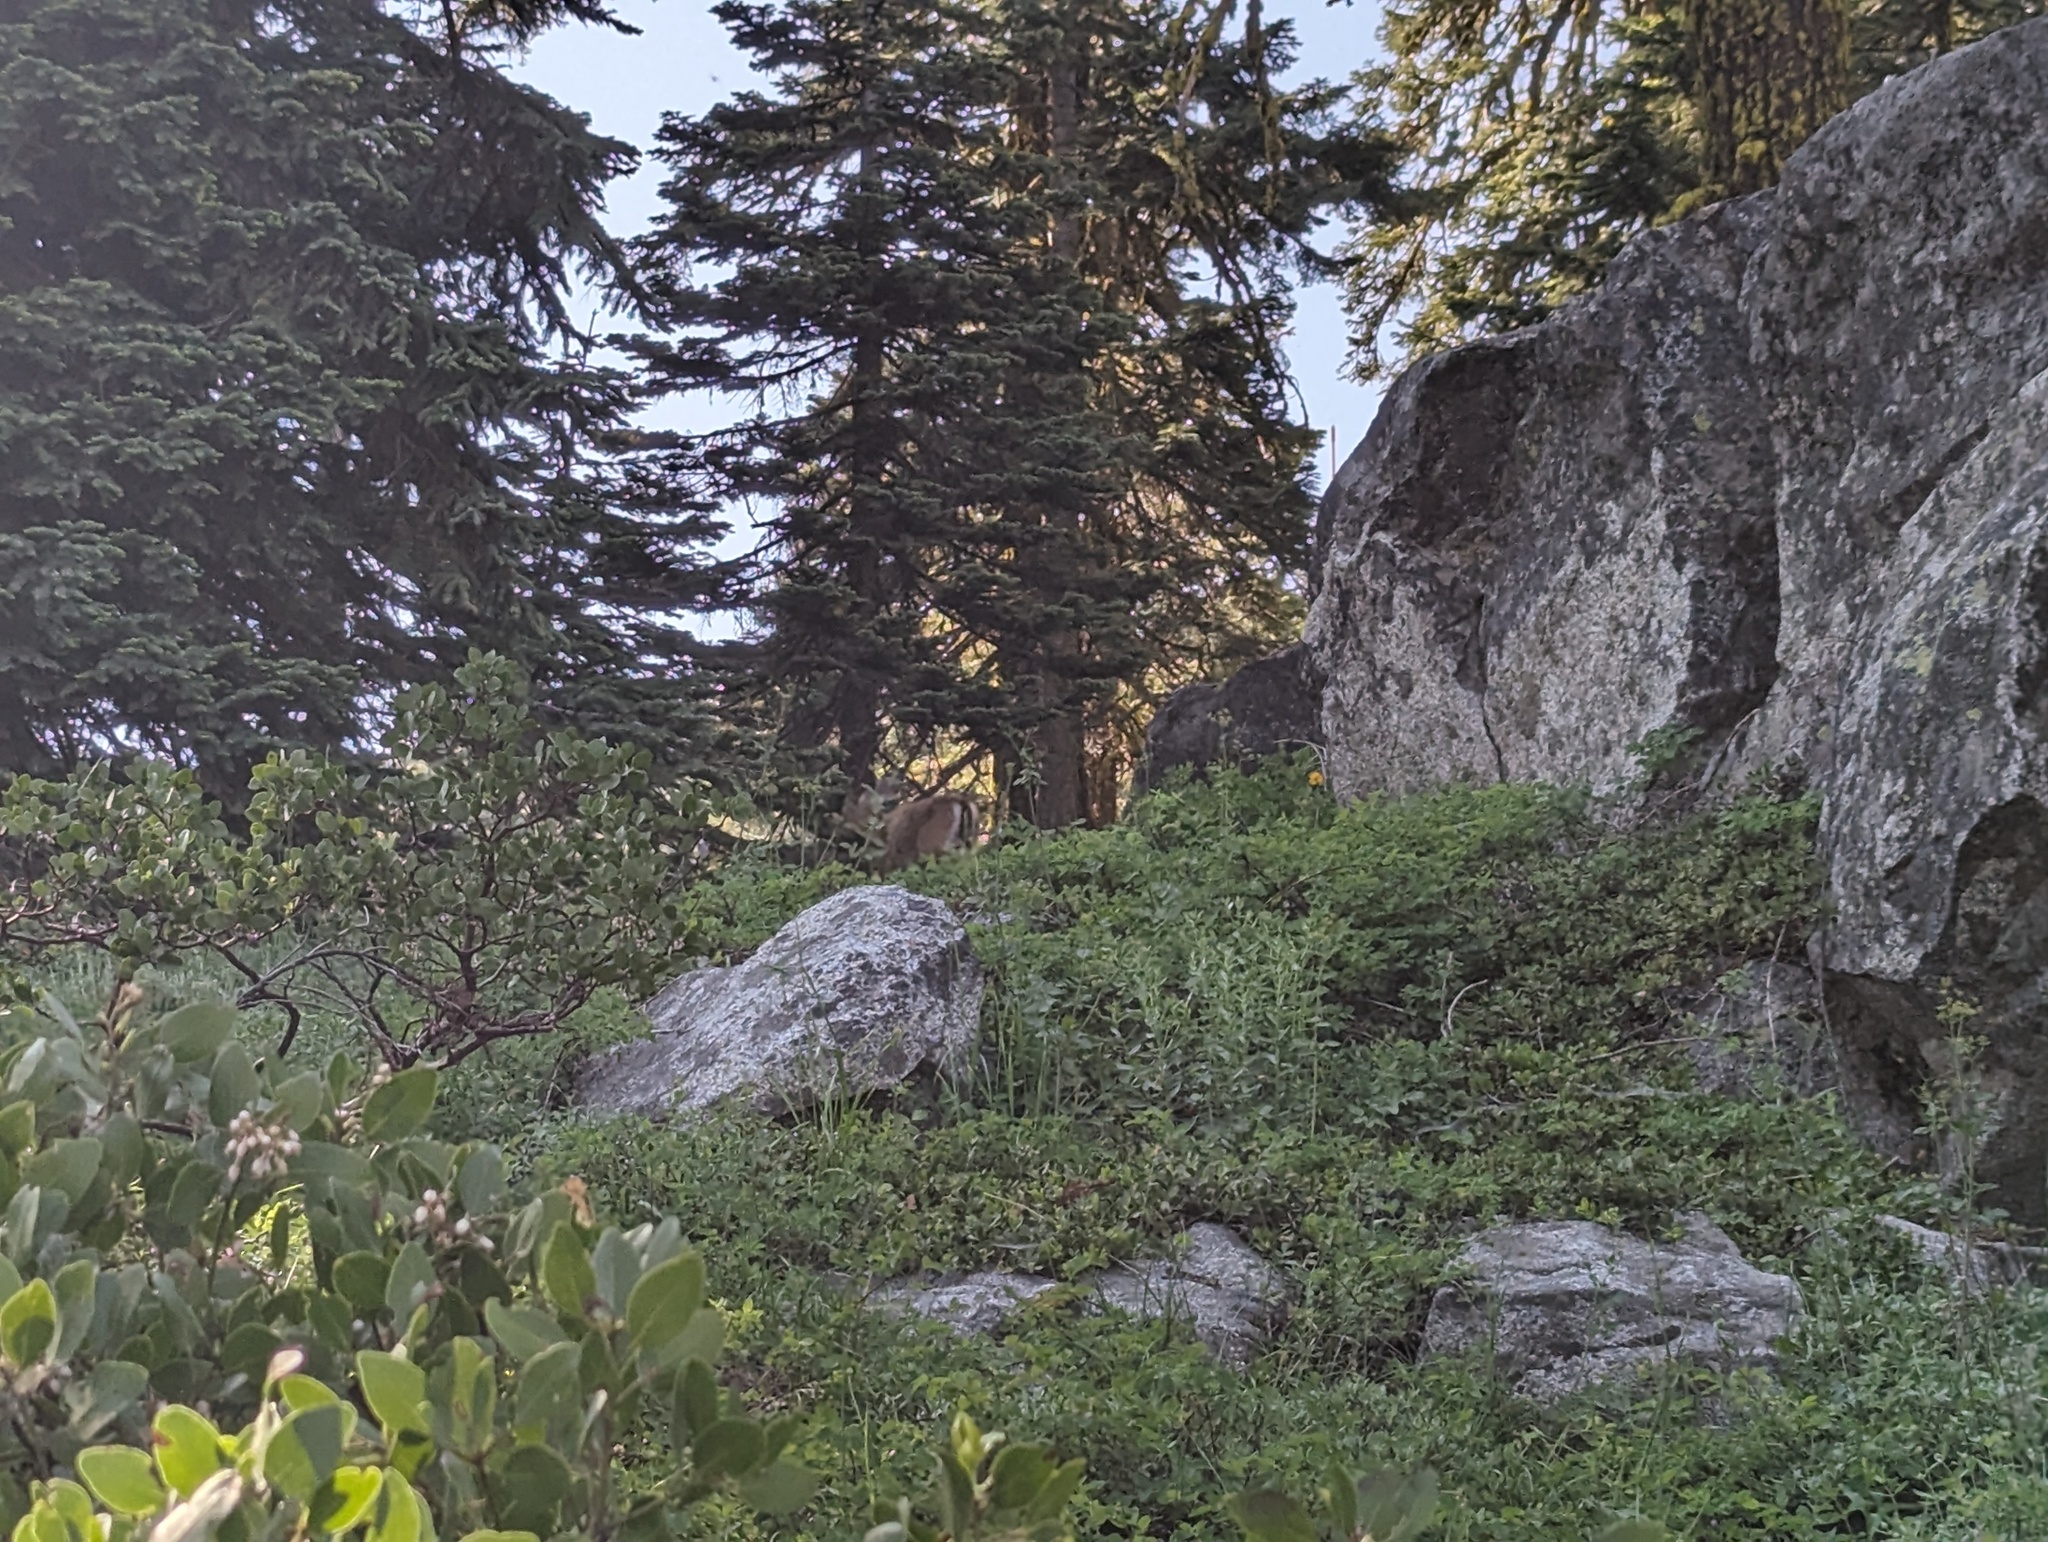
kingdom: Animalia
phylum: Chordata
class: Mammalia
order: Artiodactyla
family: Cervidae
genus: Odocoileus
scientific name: Odocoileus hemionus
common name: Mule deer
